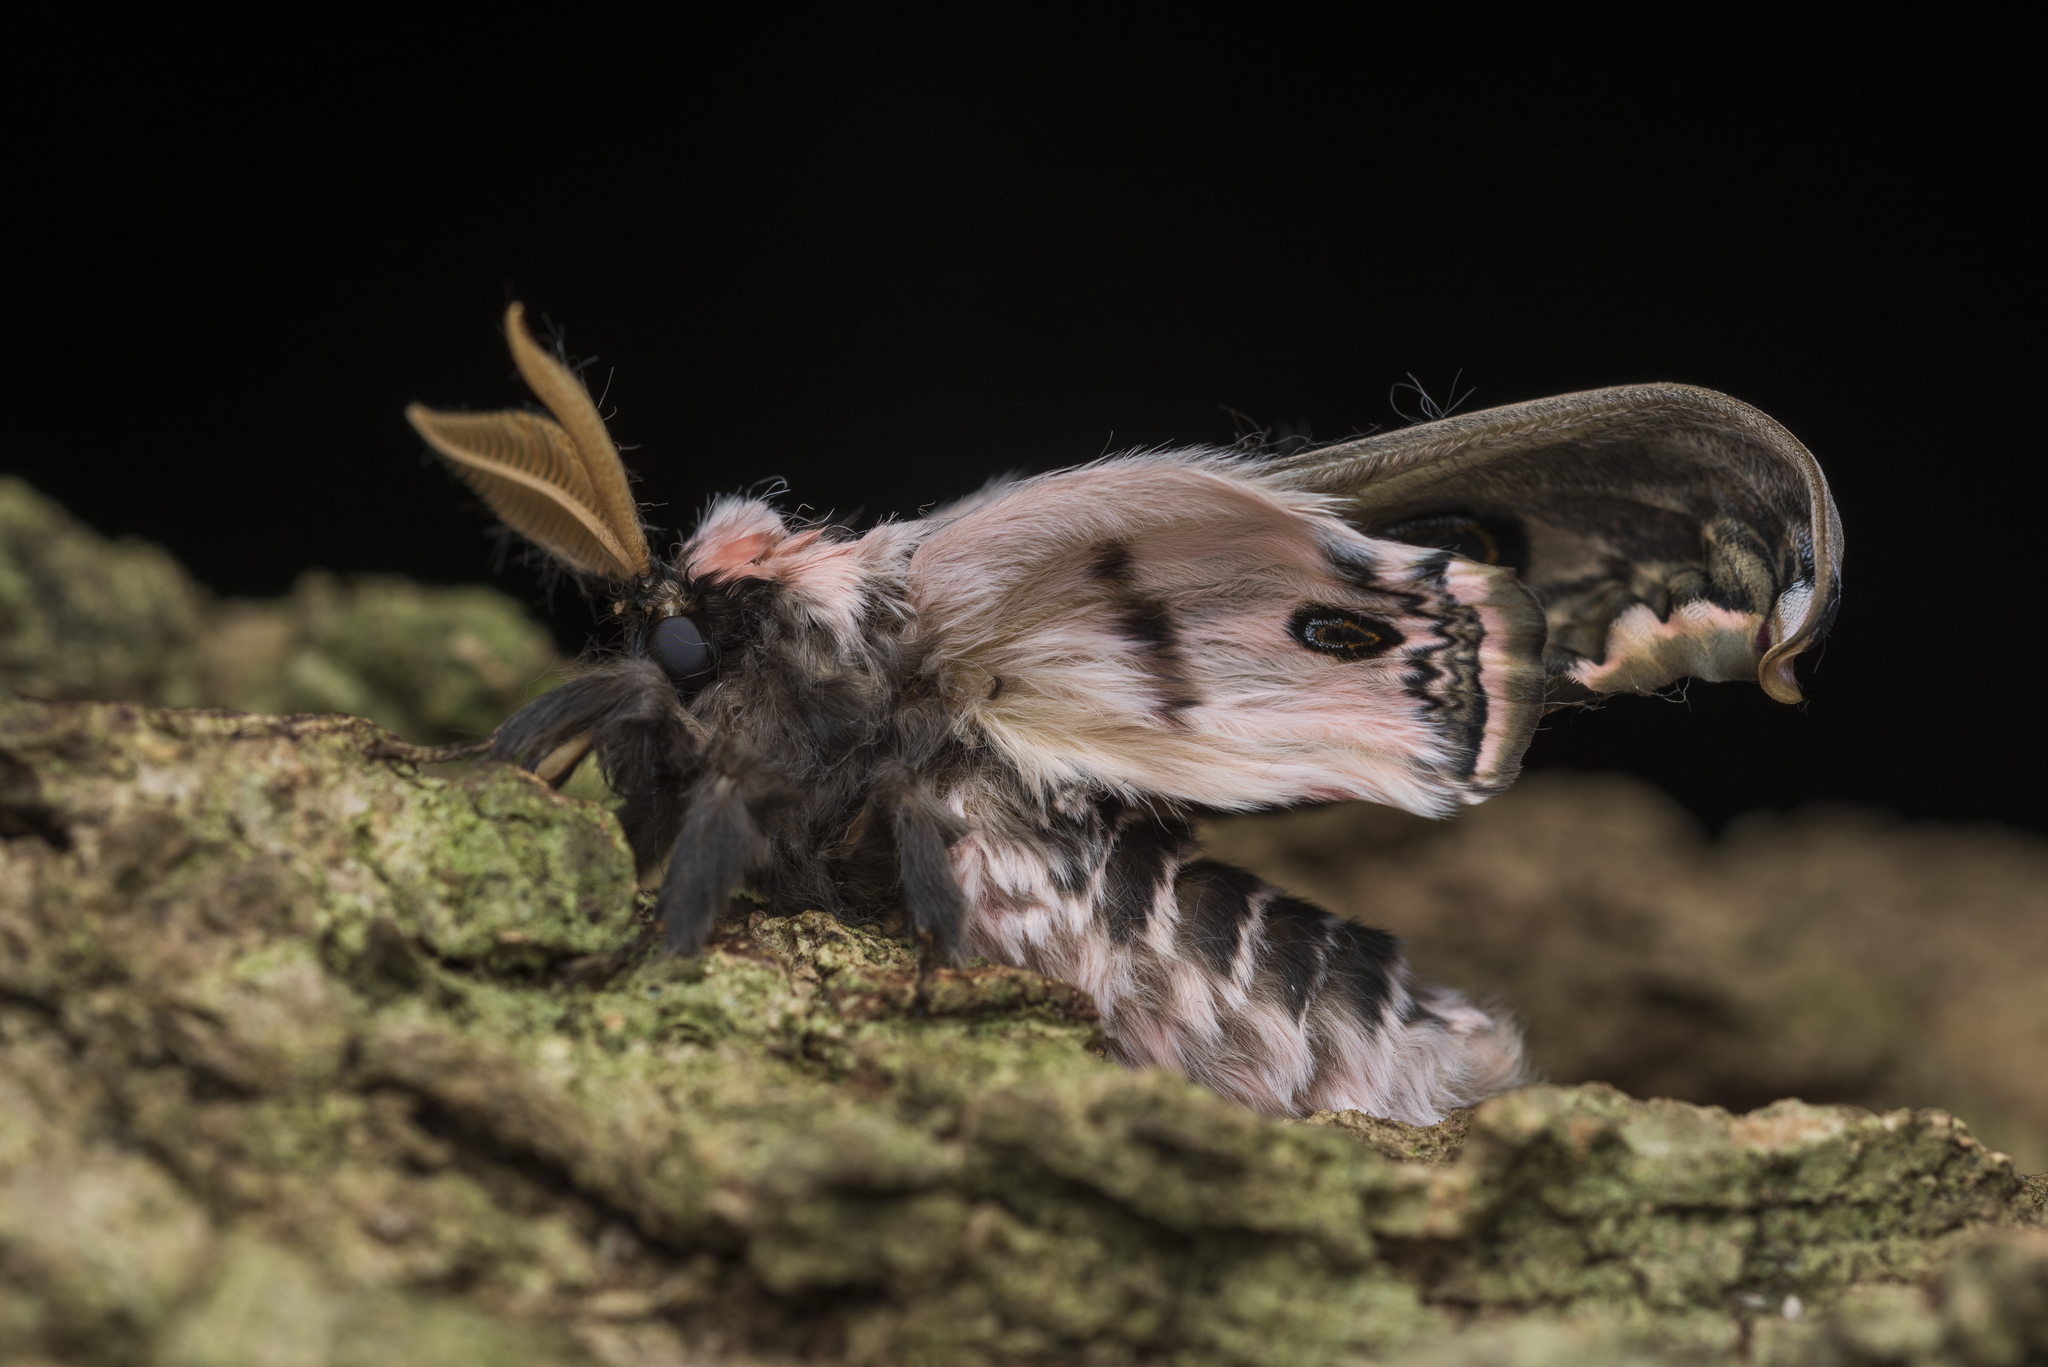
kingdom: Animalia
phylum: Arthropoda
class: Insecta
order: Lepidoptera
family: Saturniidae
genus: Saturnia
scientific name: Saturnia pyretorum
